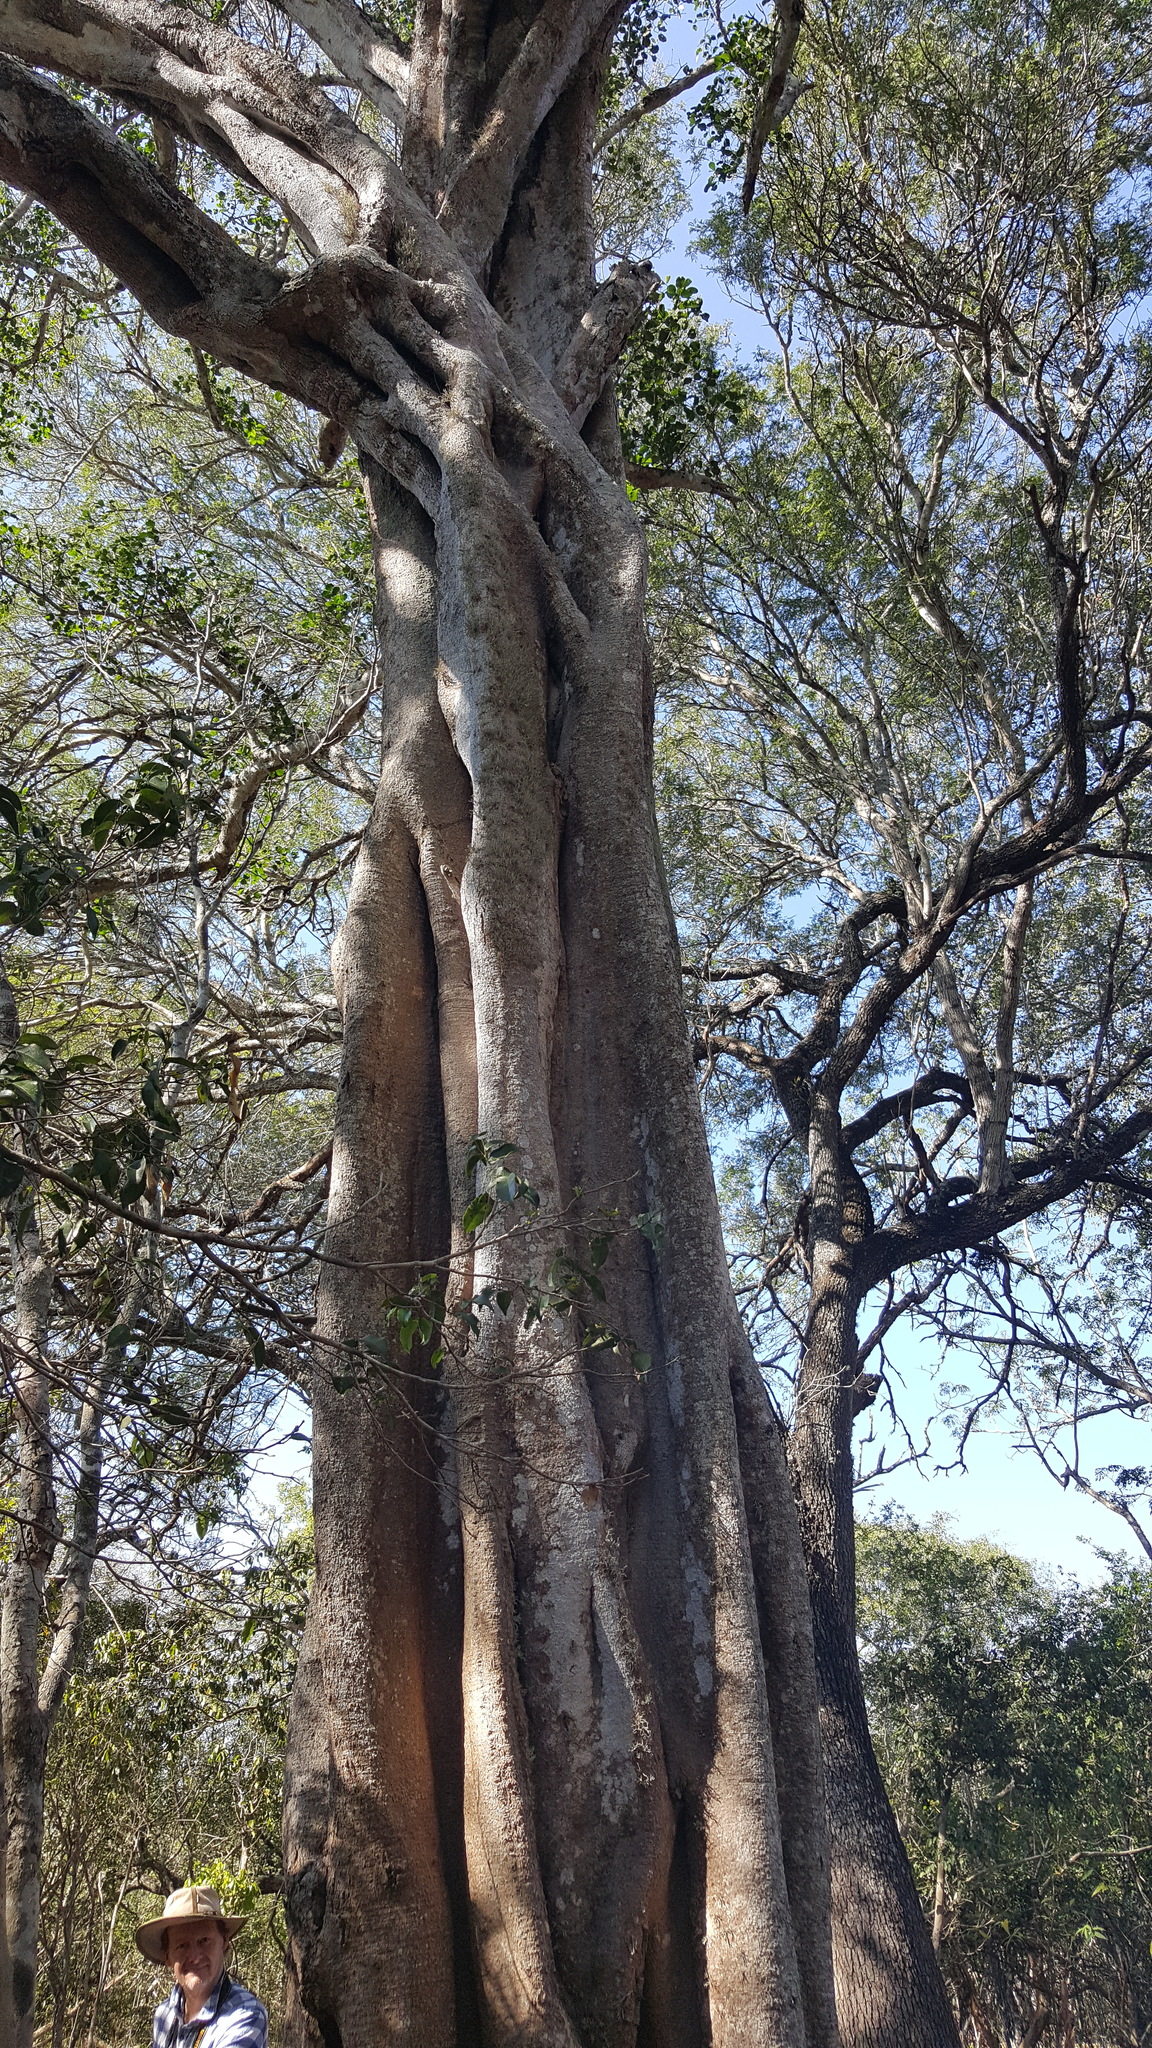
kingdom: Plantae
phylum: Tracheophyta
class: Magnoliopsida
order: Zygophyllales
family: Zygophyllaceae
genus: Balanites
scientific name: Balanites maughamii
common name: Torchwood
